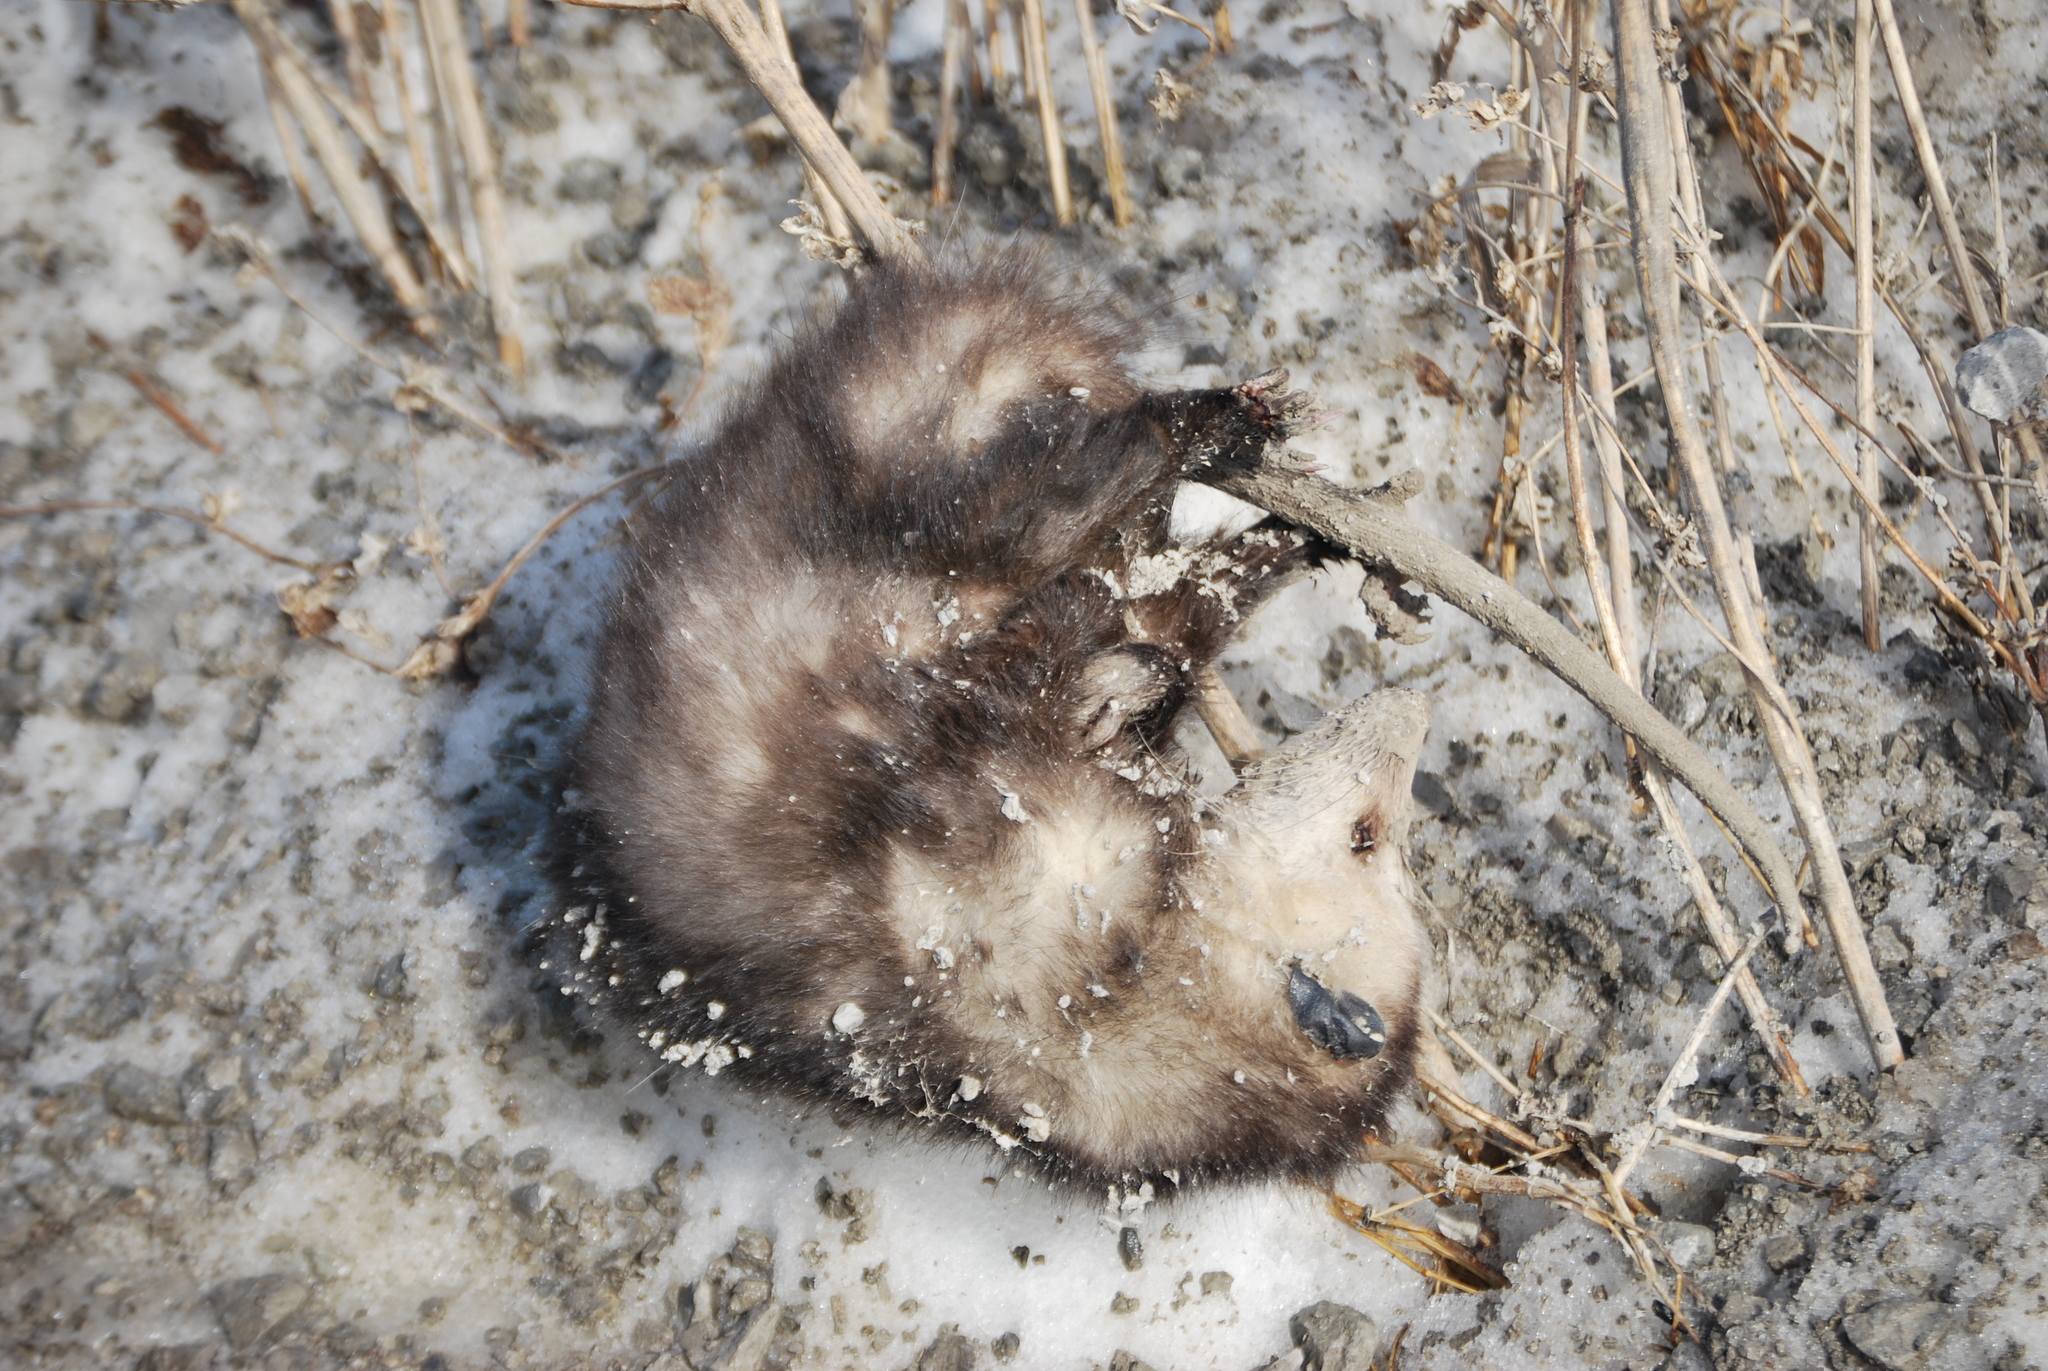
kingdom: Animalia
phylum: Chordata
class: Mammalia
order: Didelphimorphia
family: Didelphidae
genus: Didelphis
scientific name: Didelphis virginiana
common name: Virginia opossum
